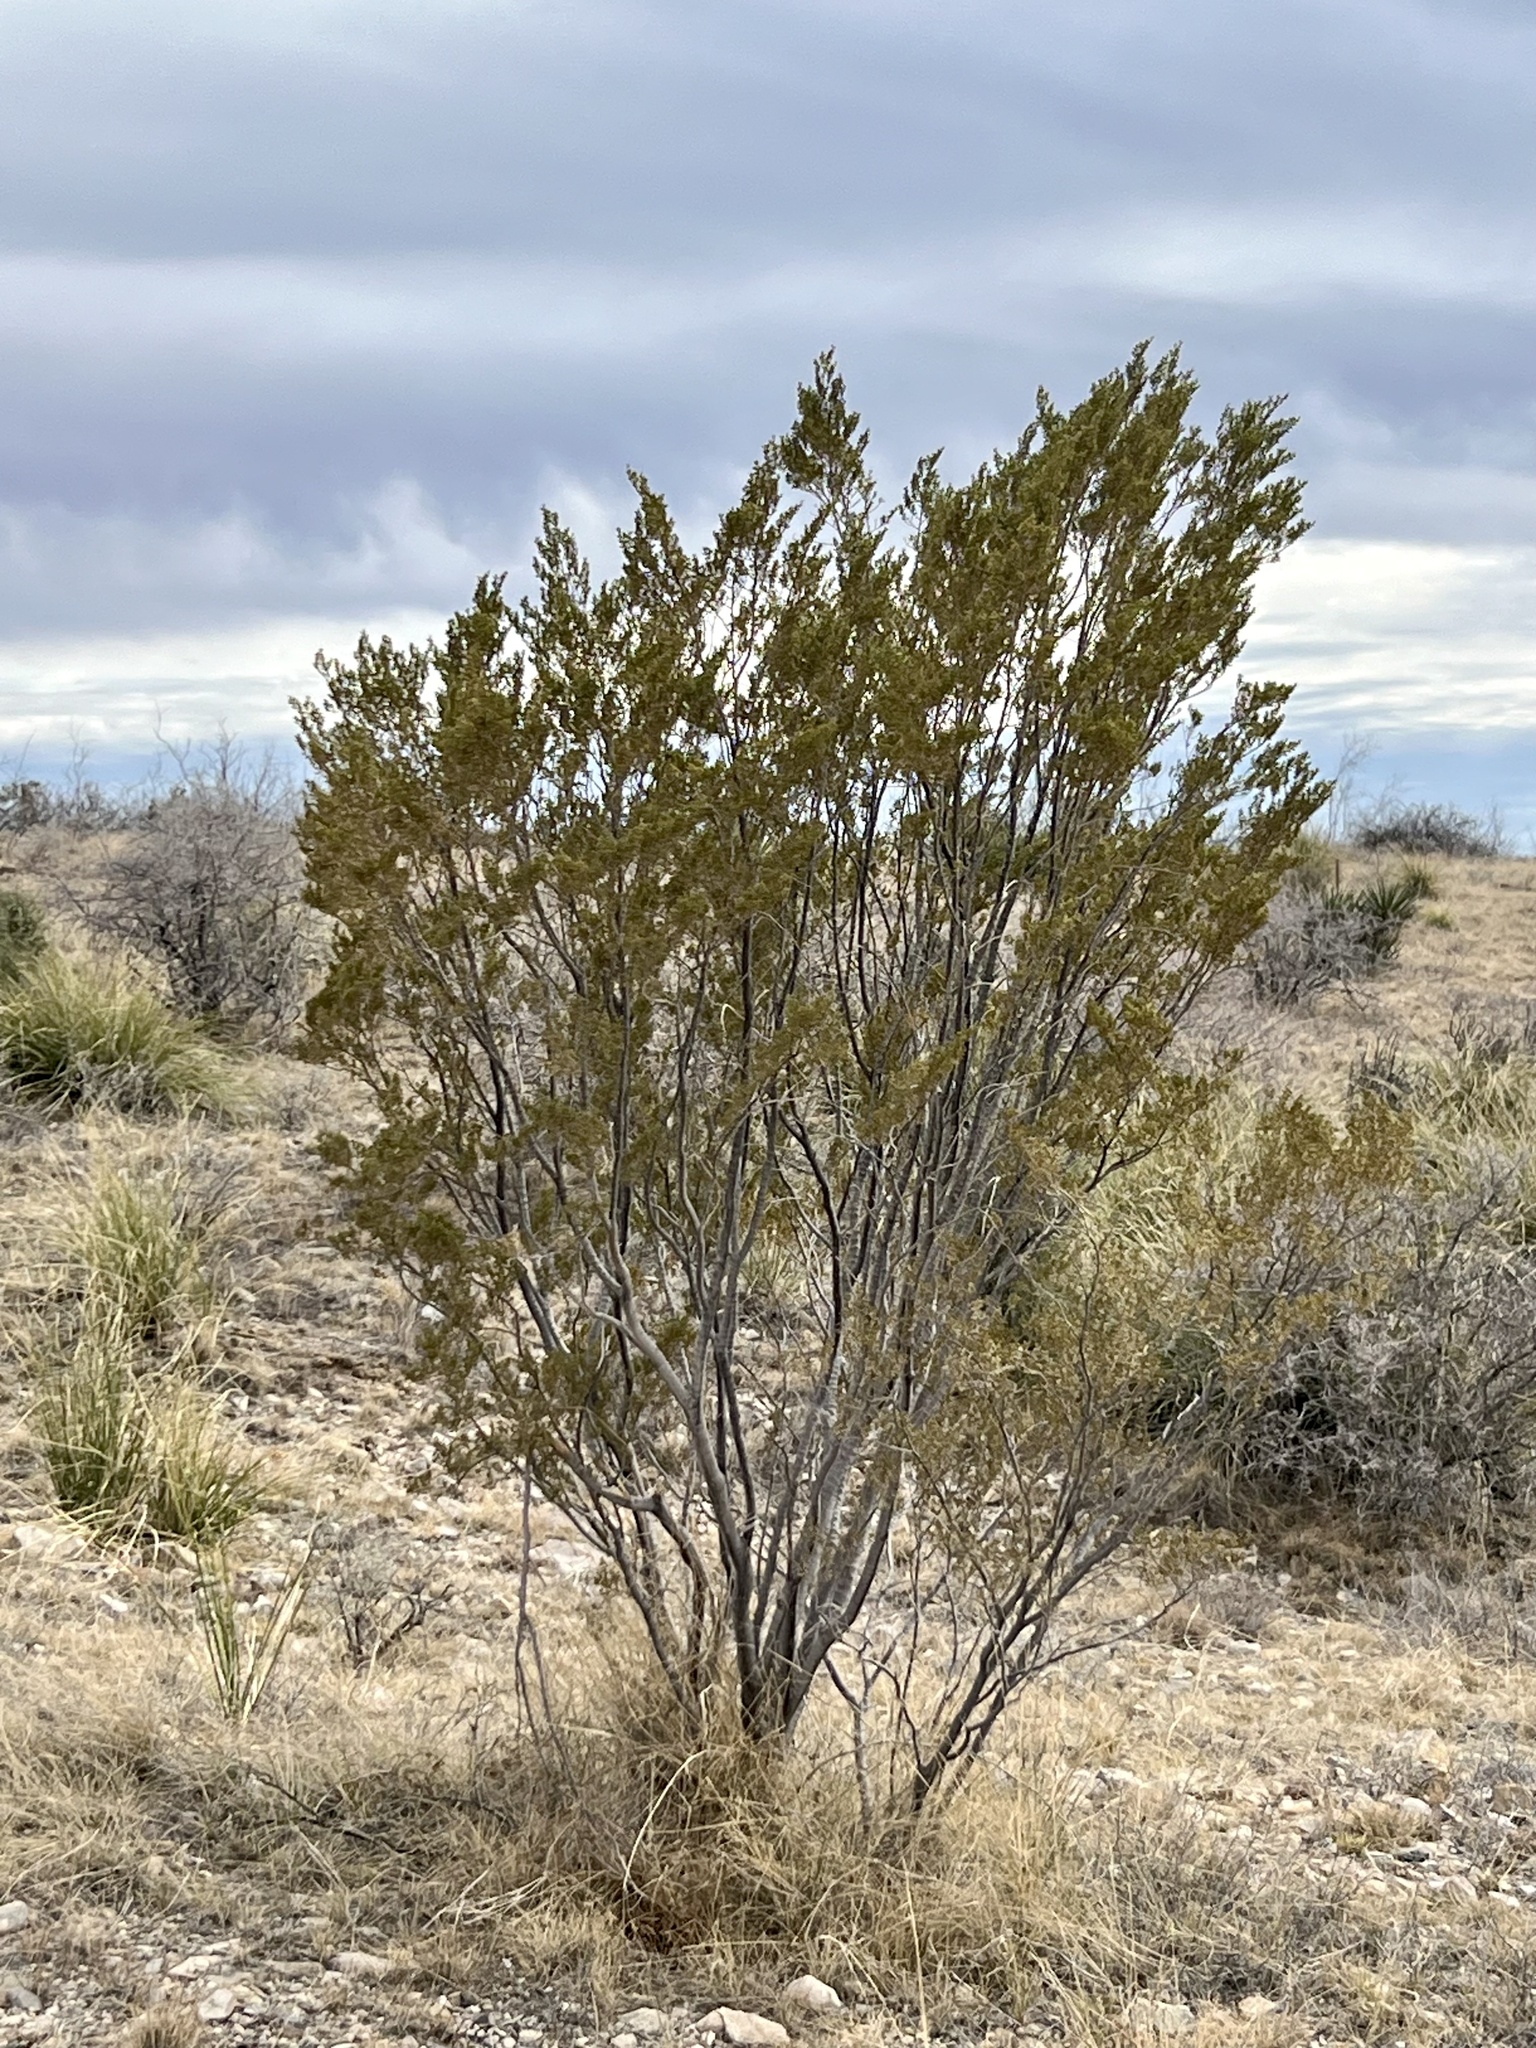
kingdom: Plantae
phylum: Tracheophyta
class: Magnoliopsida
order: Zygophyllales
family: Zygophyllaceae
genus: Larrea
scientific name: Larrea tridentata
